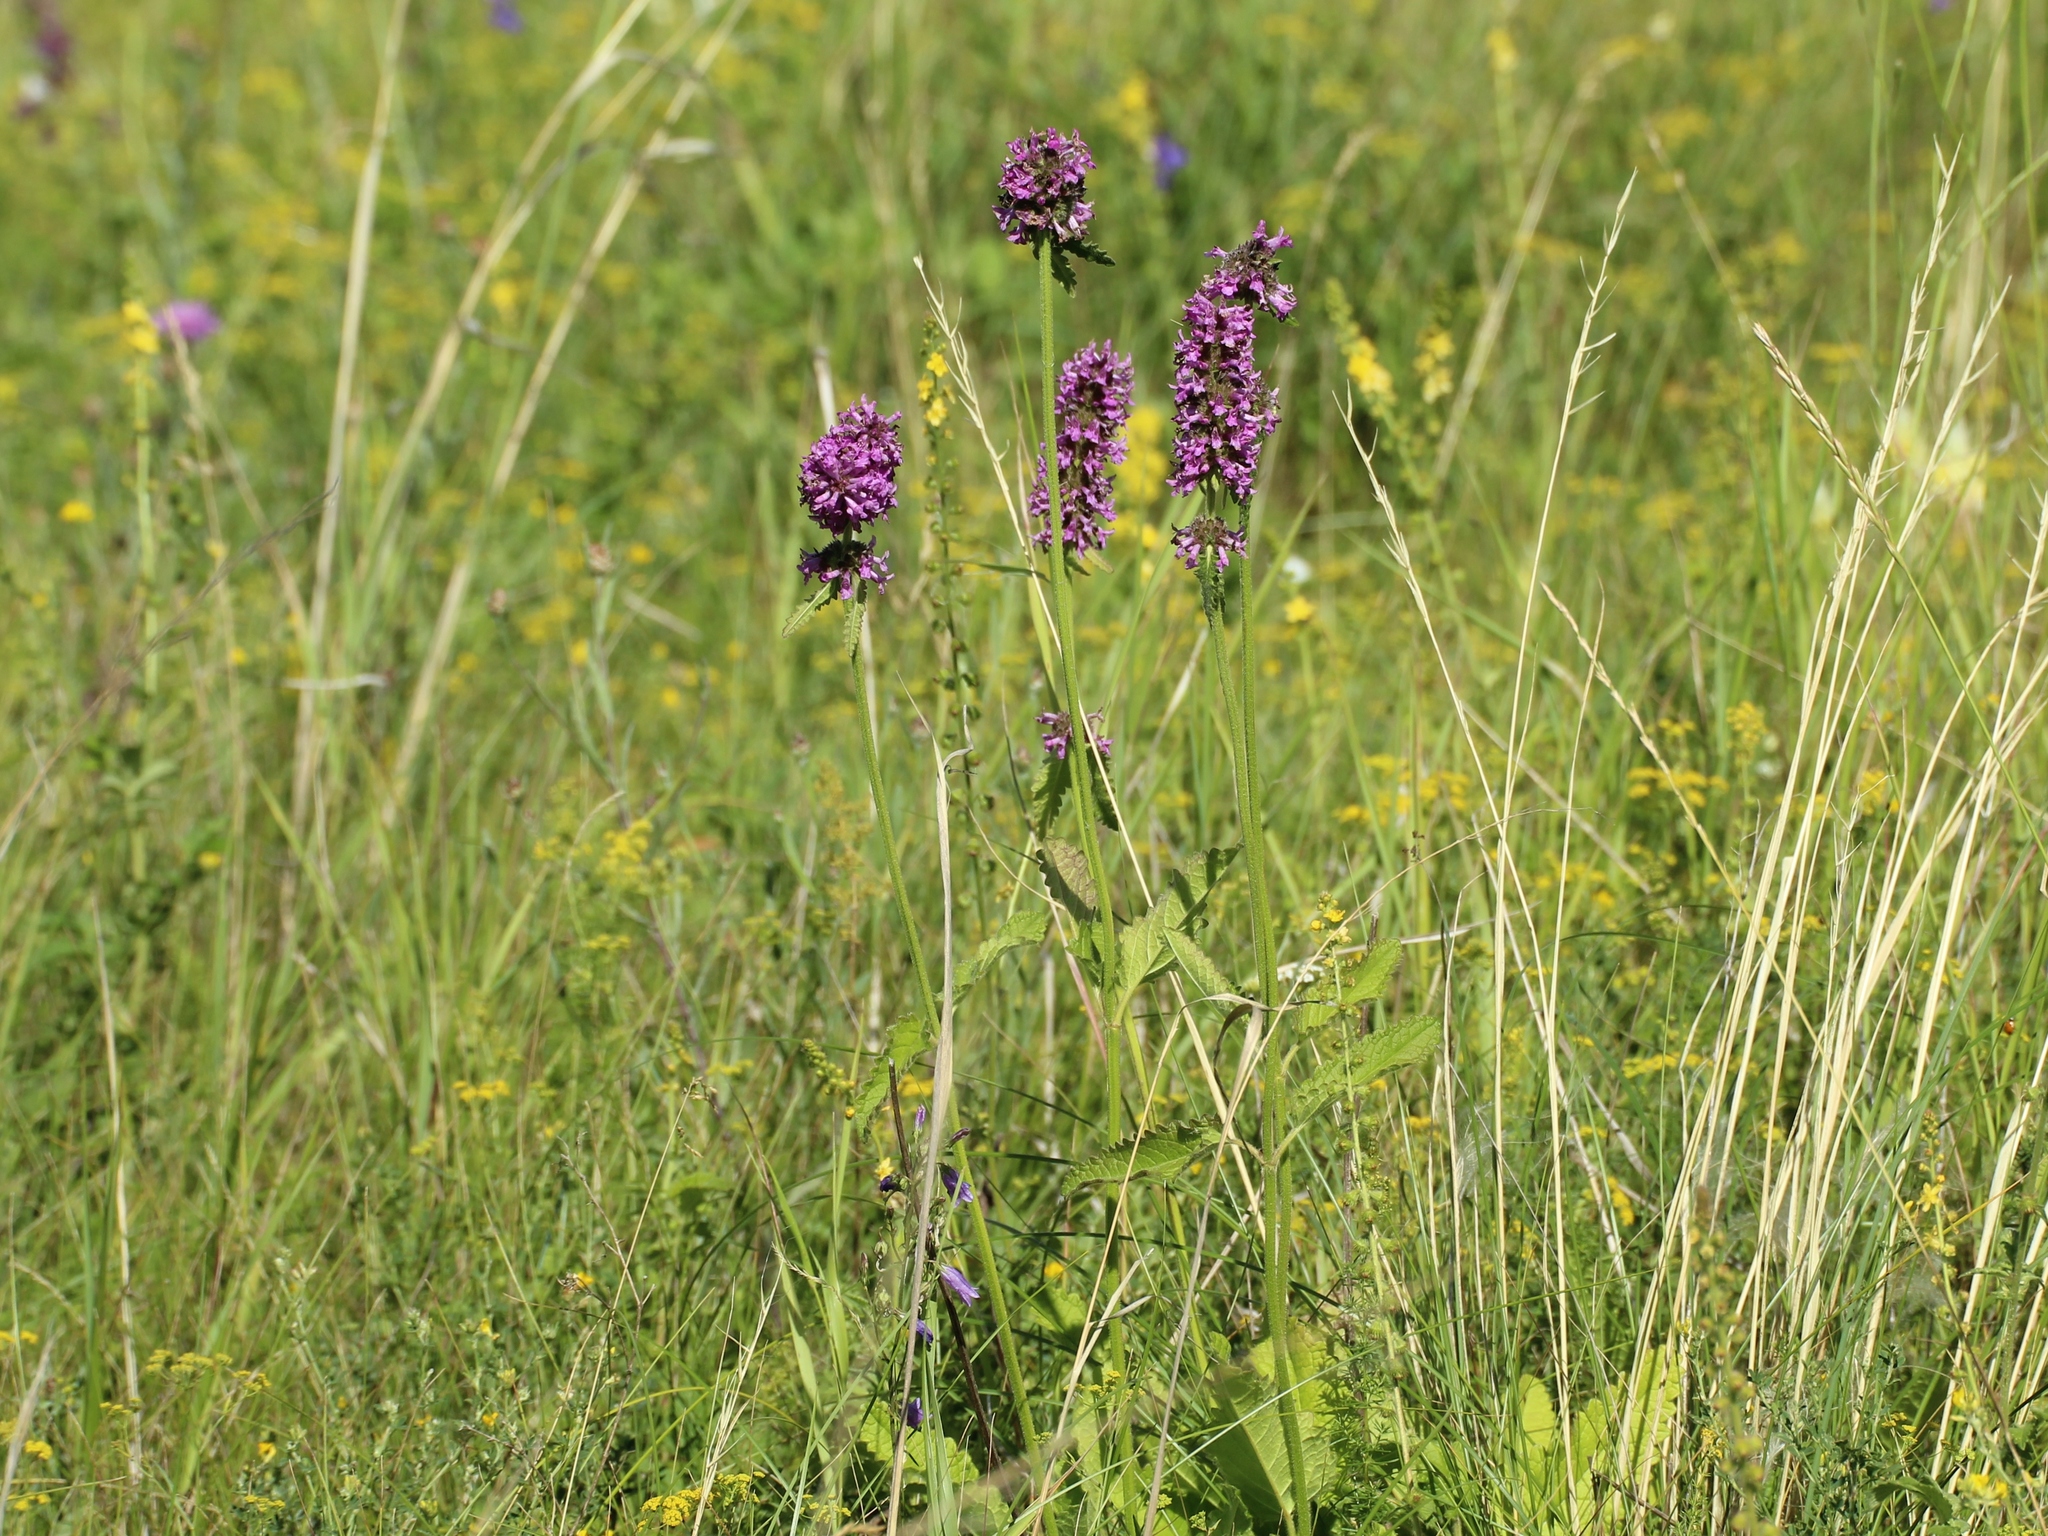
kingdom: Plantae
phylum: Tracheophyta
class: Magnoliopsida
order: Lamiales
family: Lamiaceae
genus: Betonica
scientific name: Betonica officinalis
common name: Bishop's-wort
